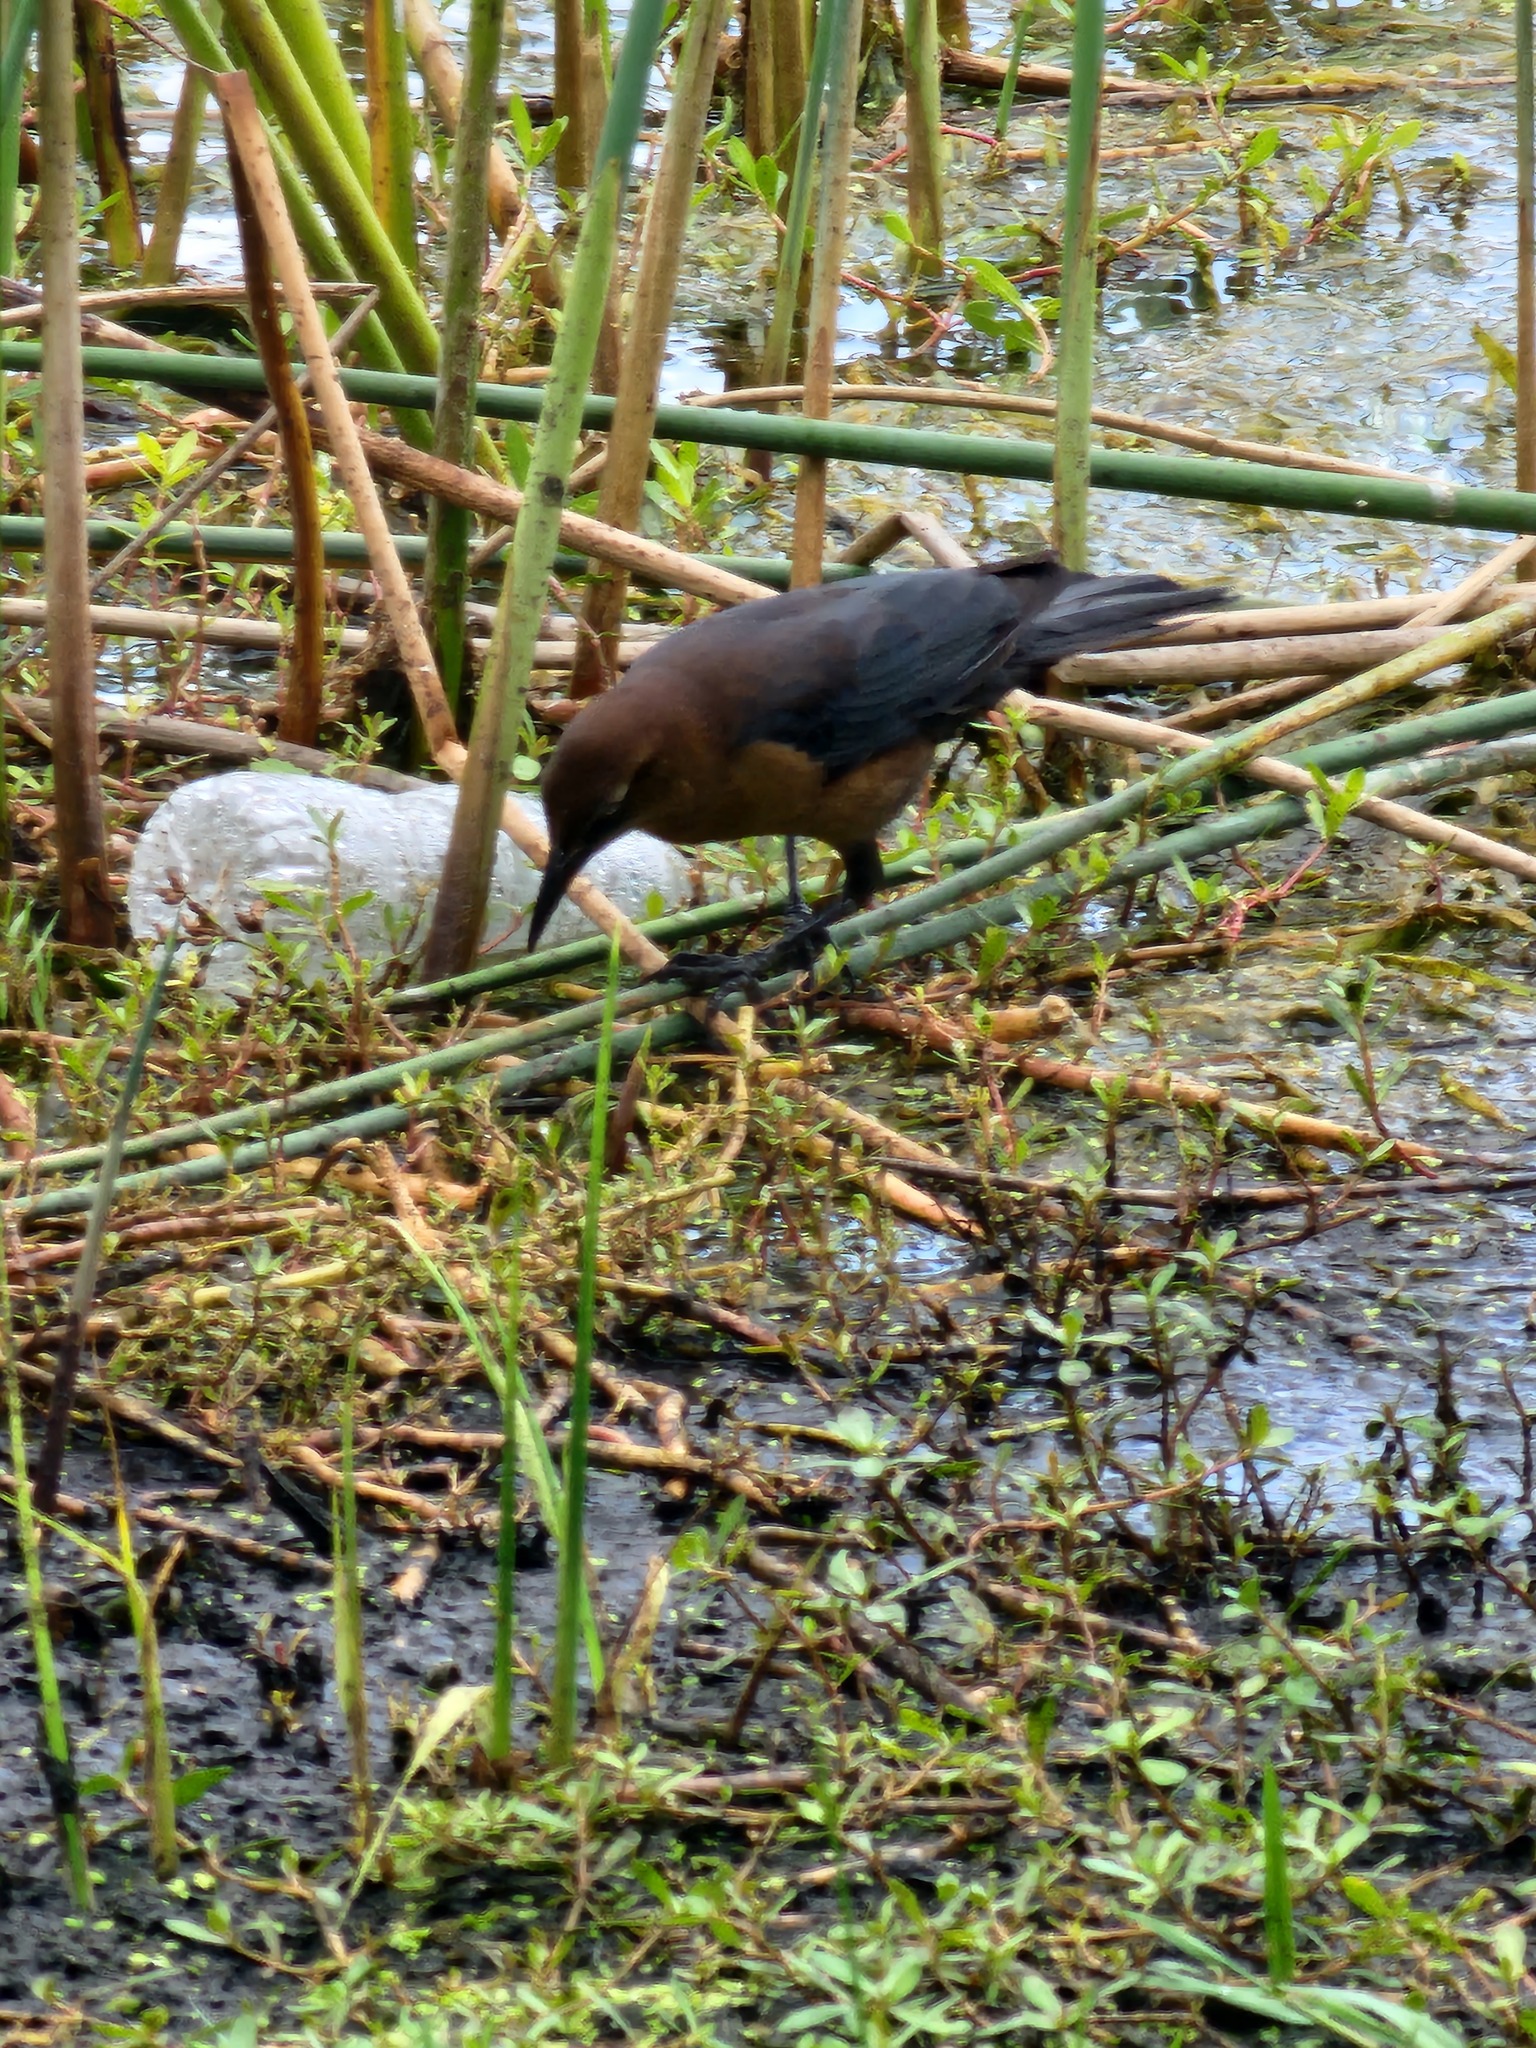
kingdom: Animalia
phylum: Chordata
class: Aves
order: Passeriformes
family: Icteridae
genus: Quiscalus
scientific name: Quiscalus major
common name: Boat-tailed grackle
